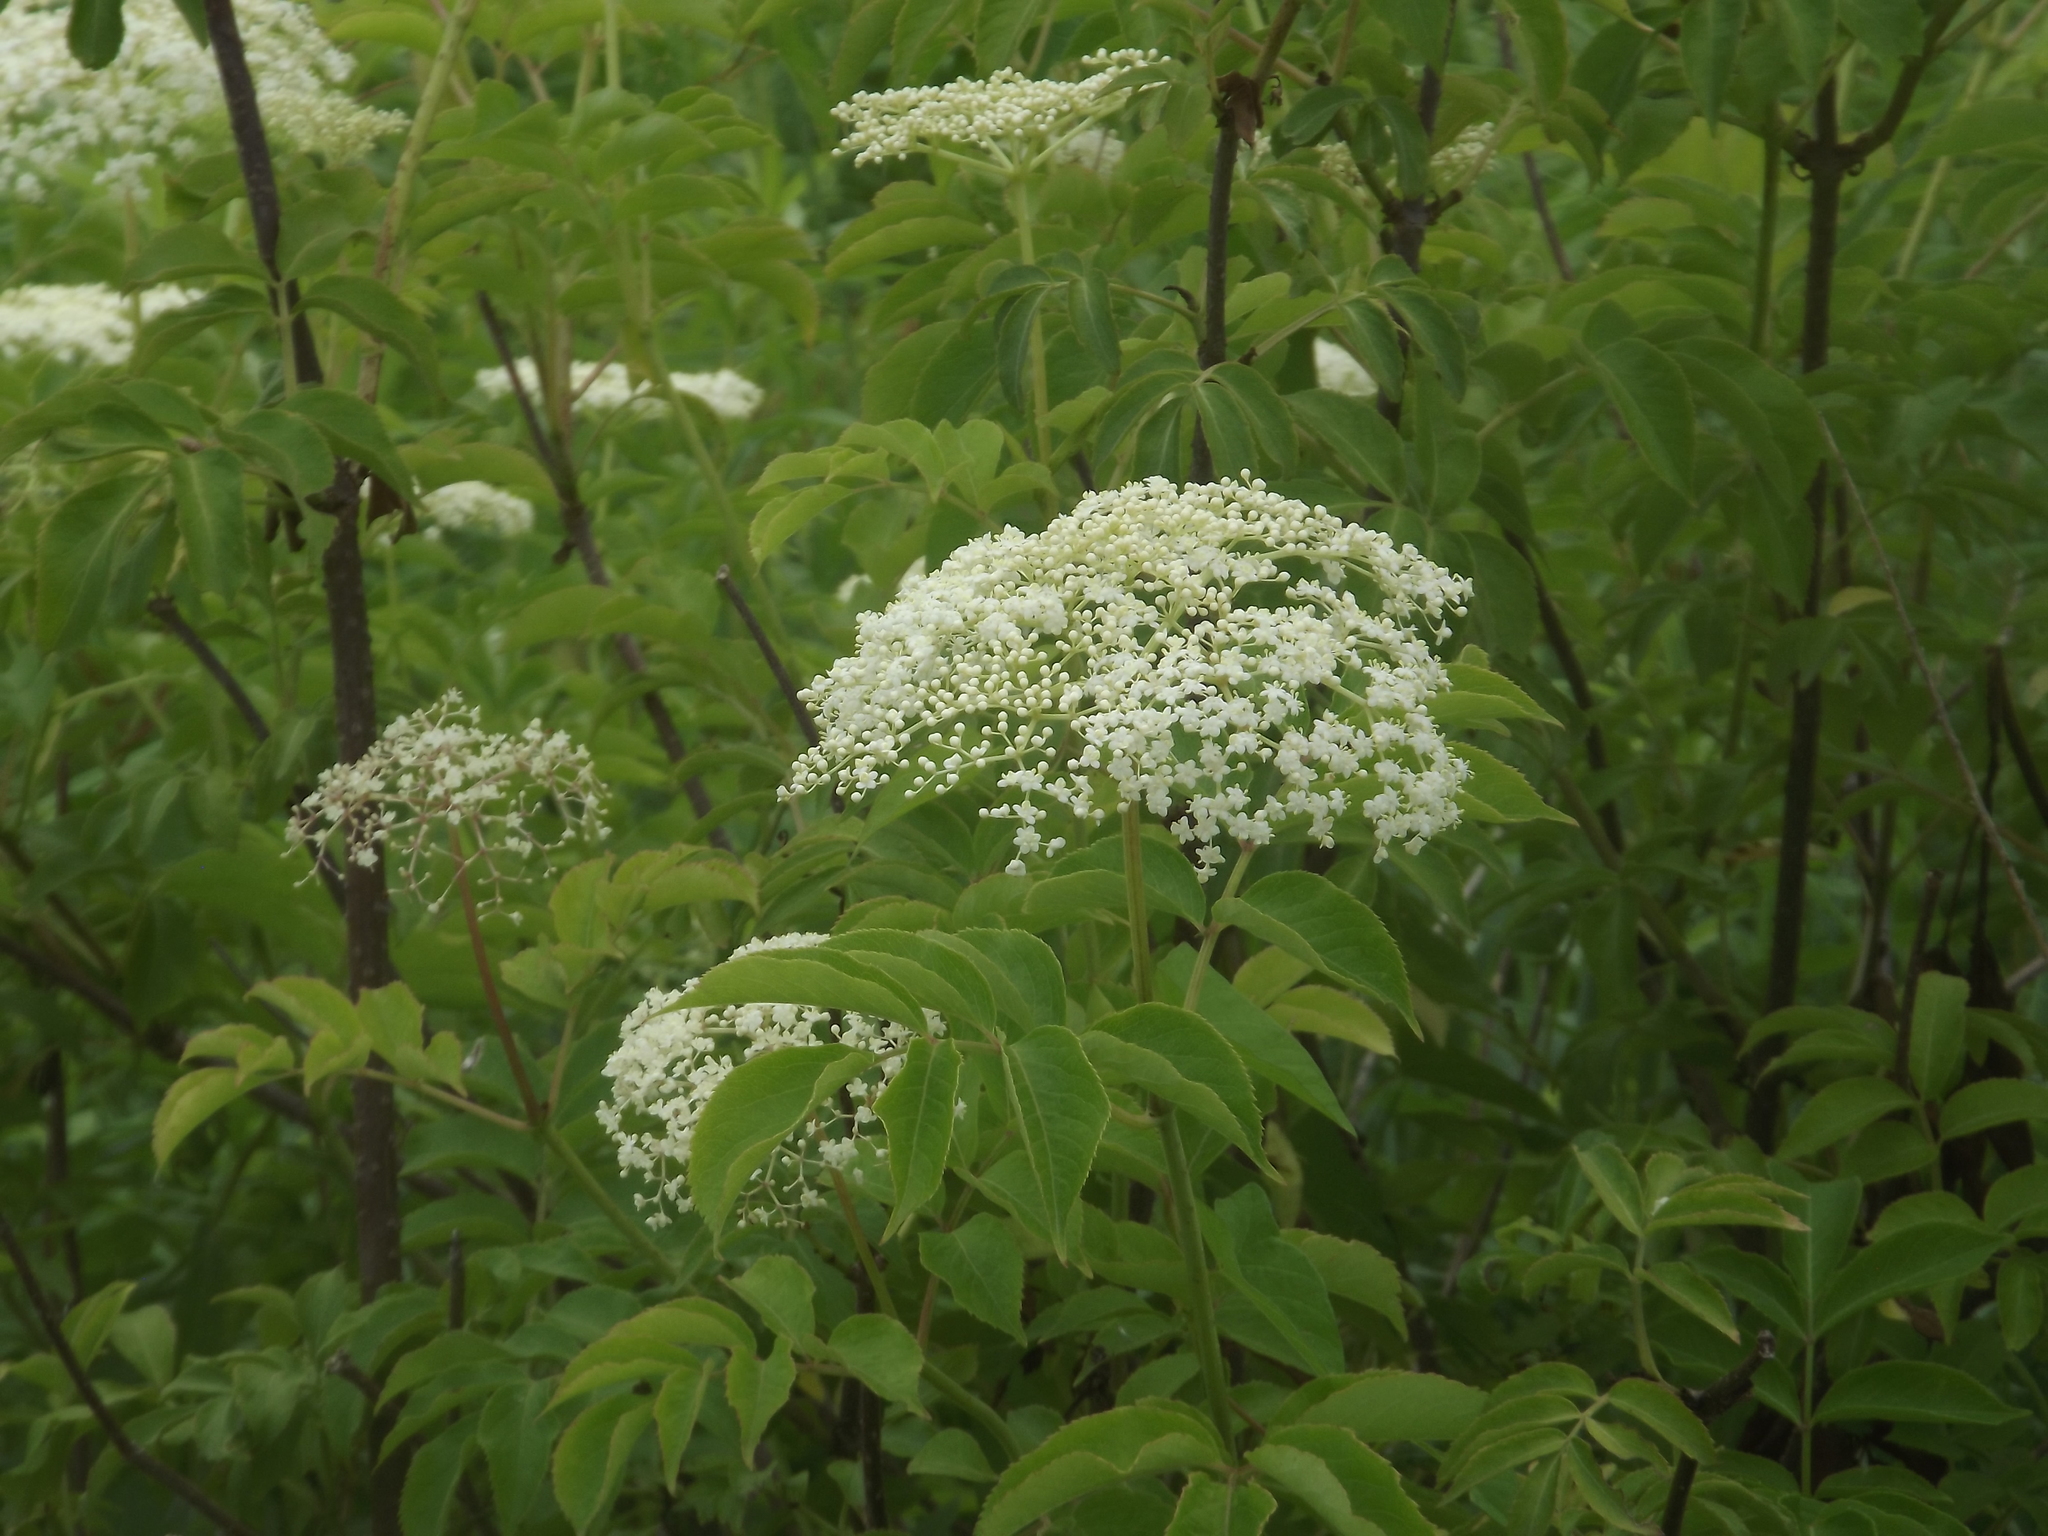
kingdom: Plantae
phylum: Tracheophyta
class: Magnoliopsida
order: Dipsacales
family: Viburnaceae
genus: Sambucus
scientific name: Sambucus canadensis
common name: American elder
